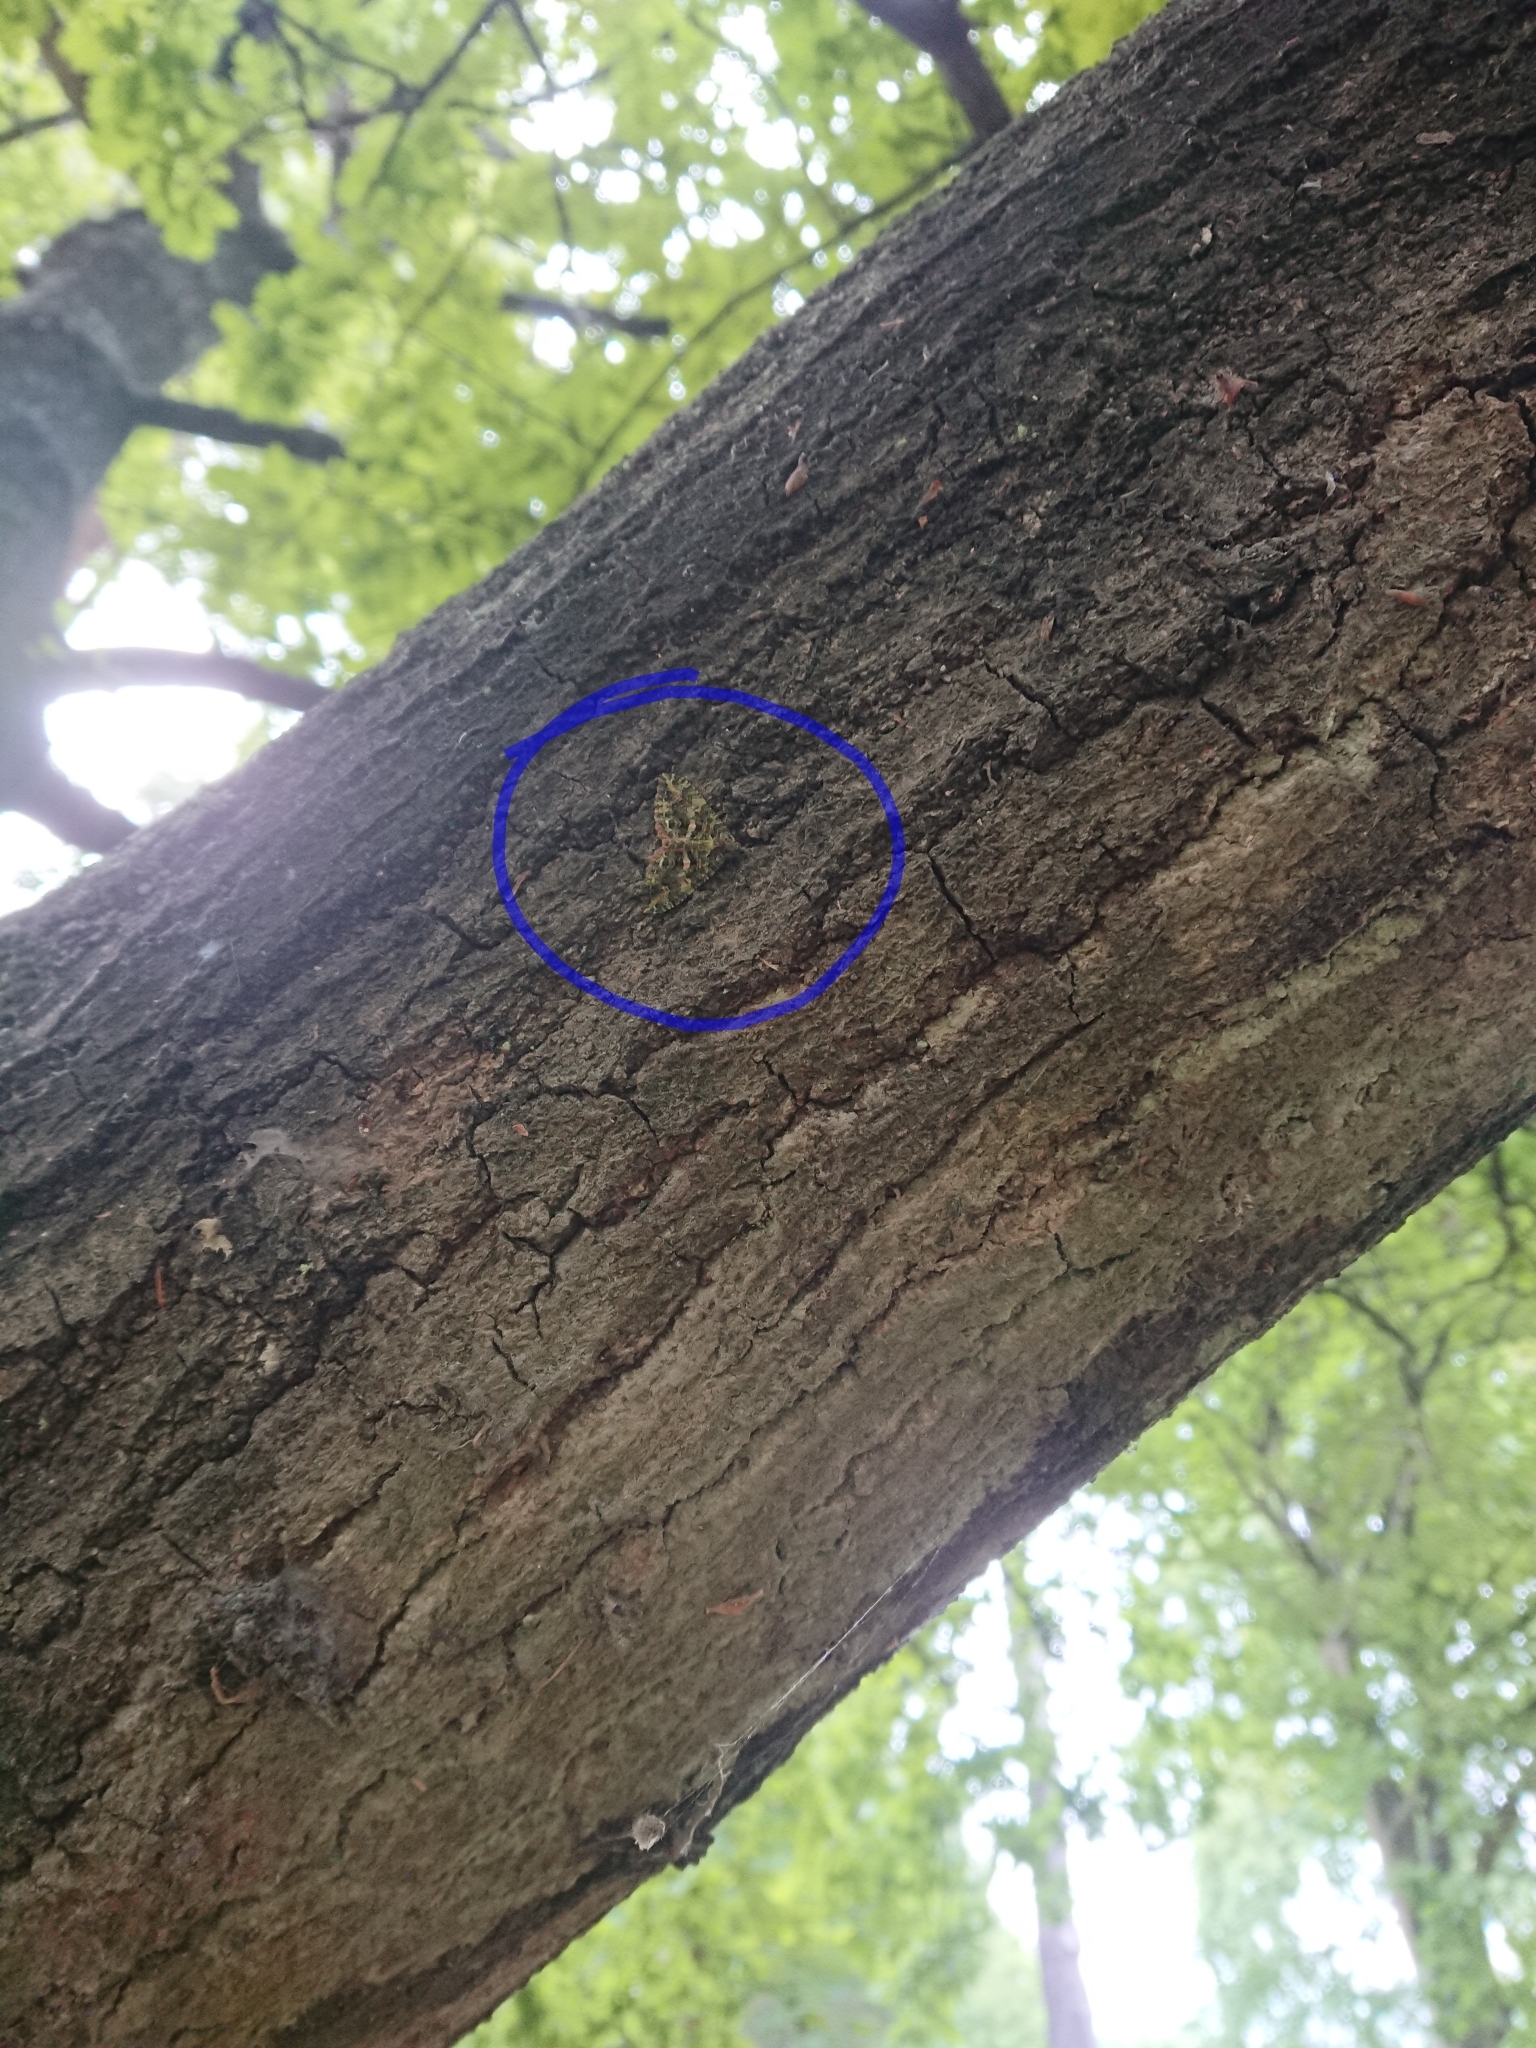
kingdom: Animalia
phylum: Arthropoda
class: Insecta
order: Lepidoptera
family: Geometridae
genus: Austrocidaria
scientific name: Austrocidaria similata
